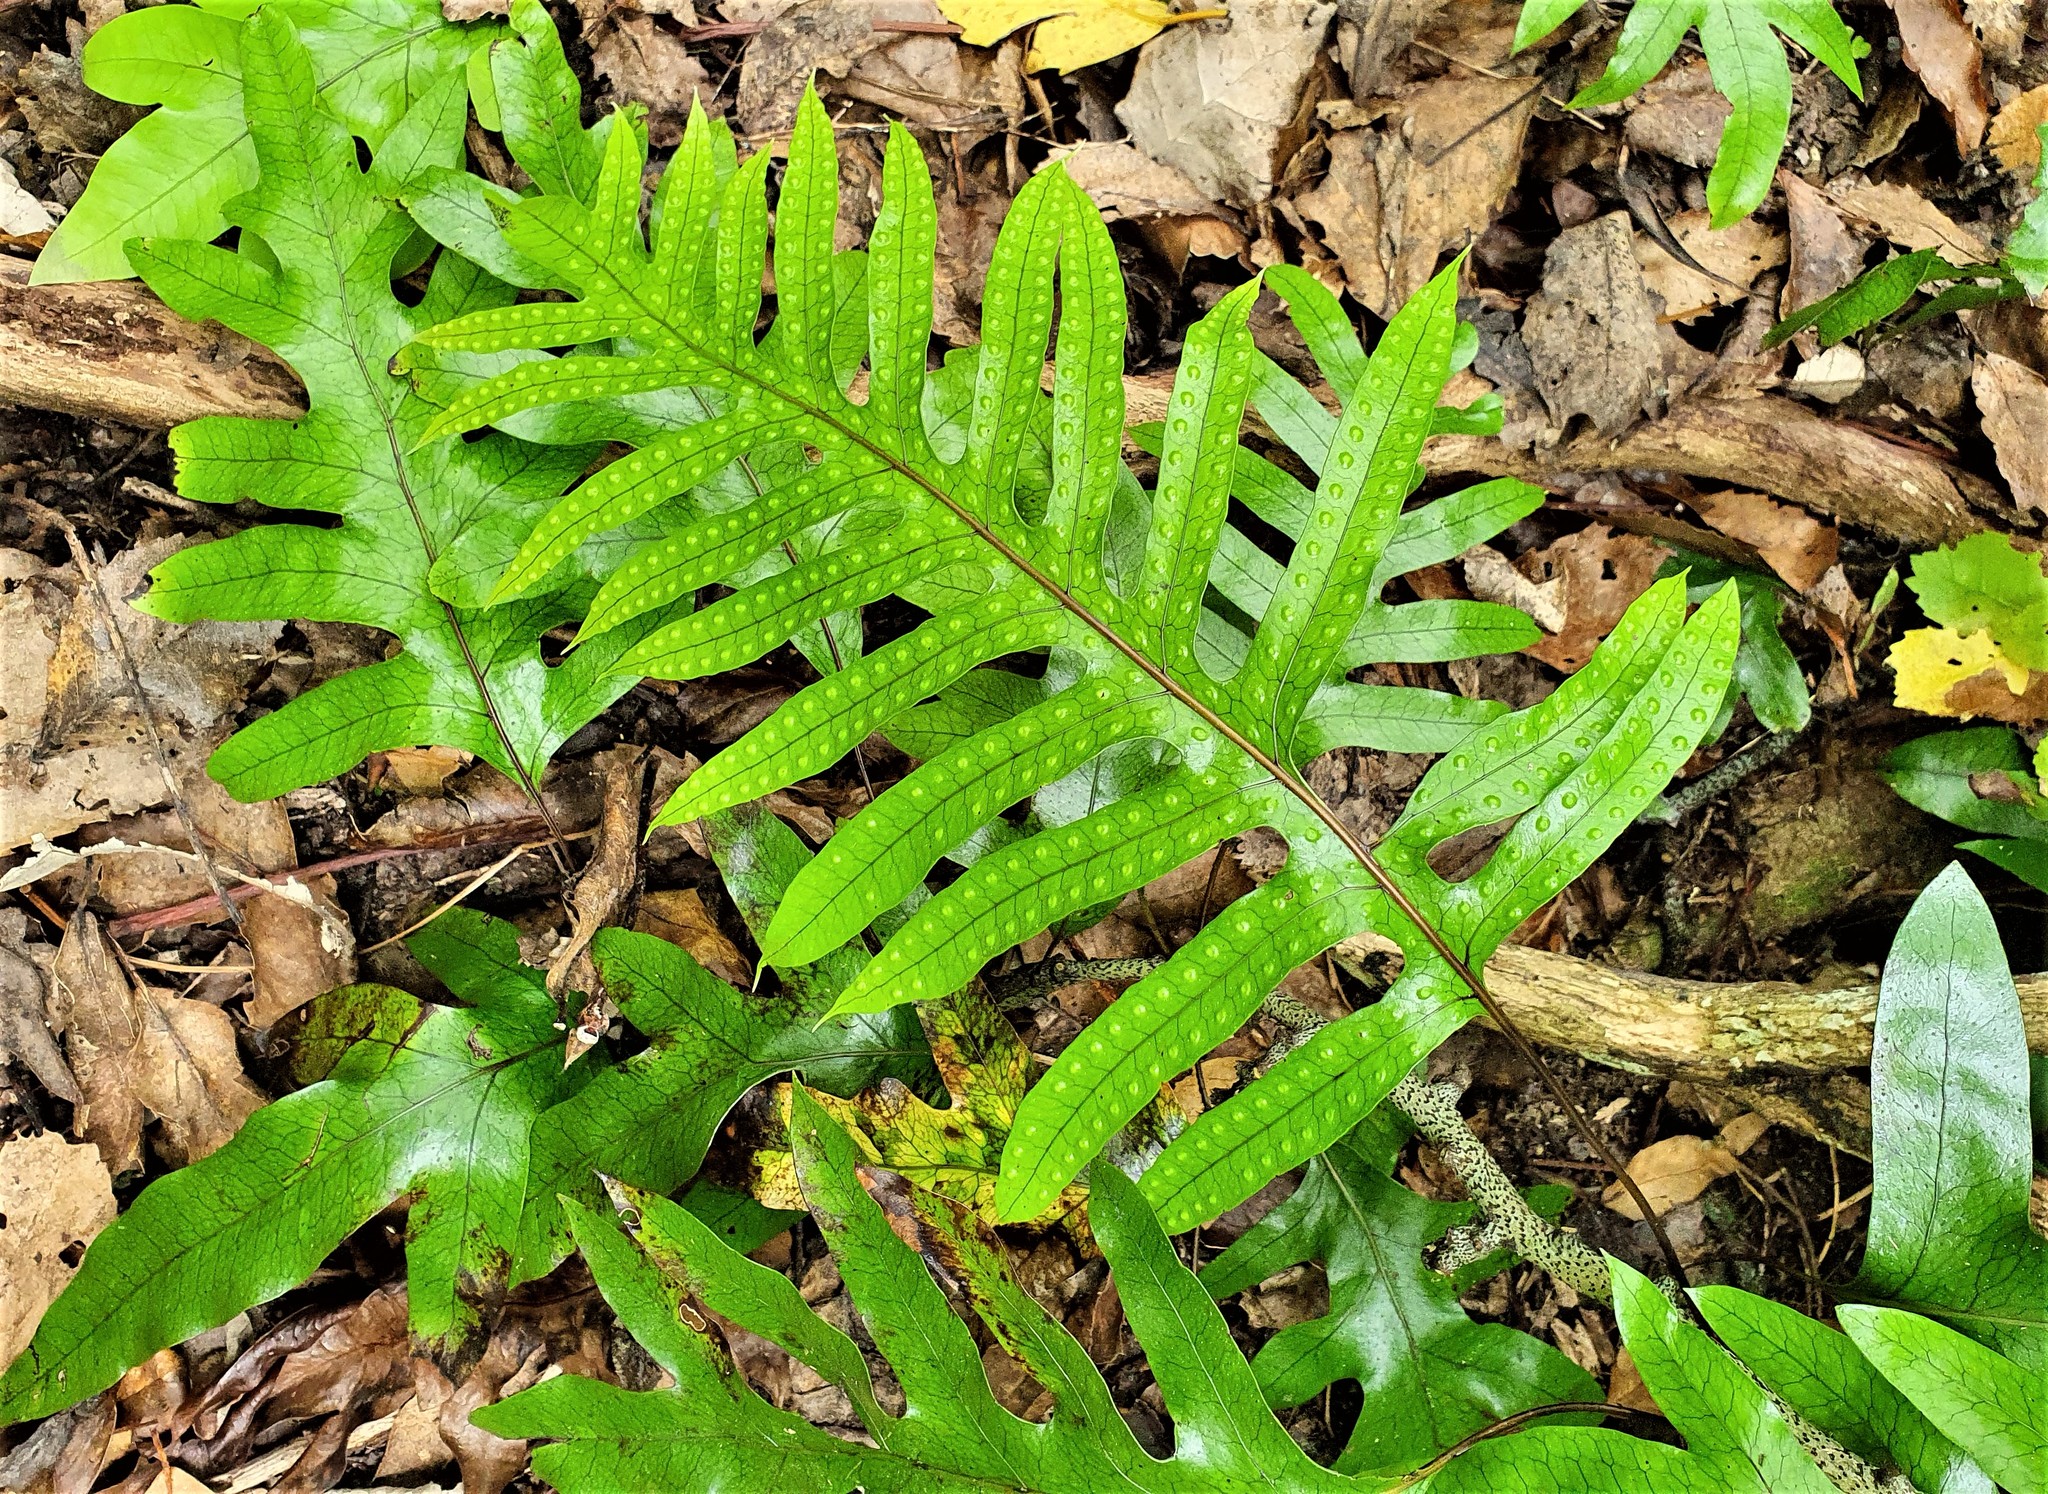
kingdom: Plantae
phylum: Tracheophyta
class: Polypodiopsida
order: Polypodiales
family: Polypodiaceae
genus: Lecanopteris
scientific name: Lecanopteris pustulata
